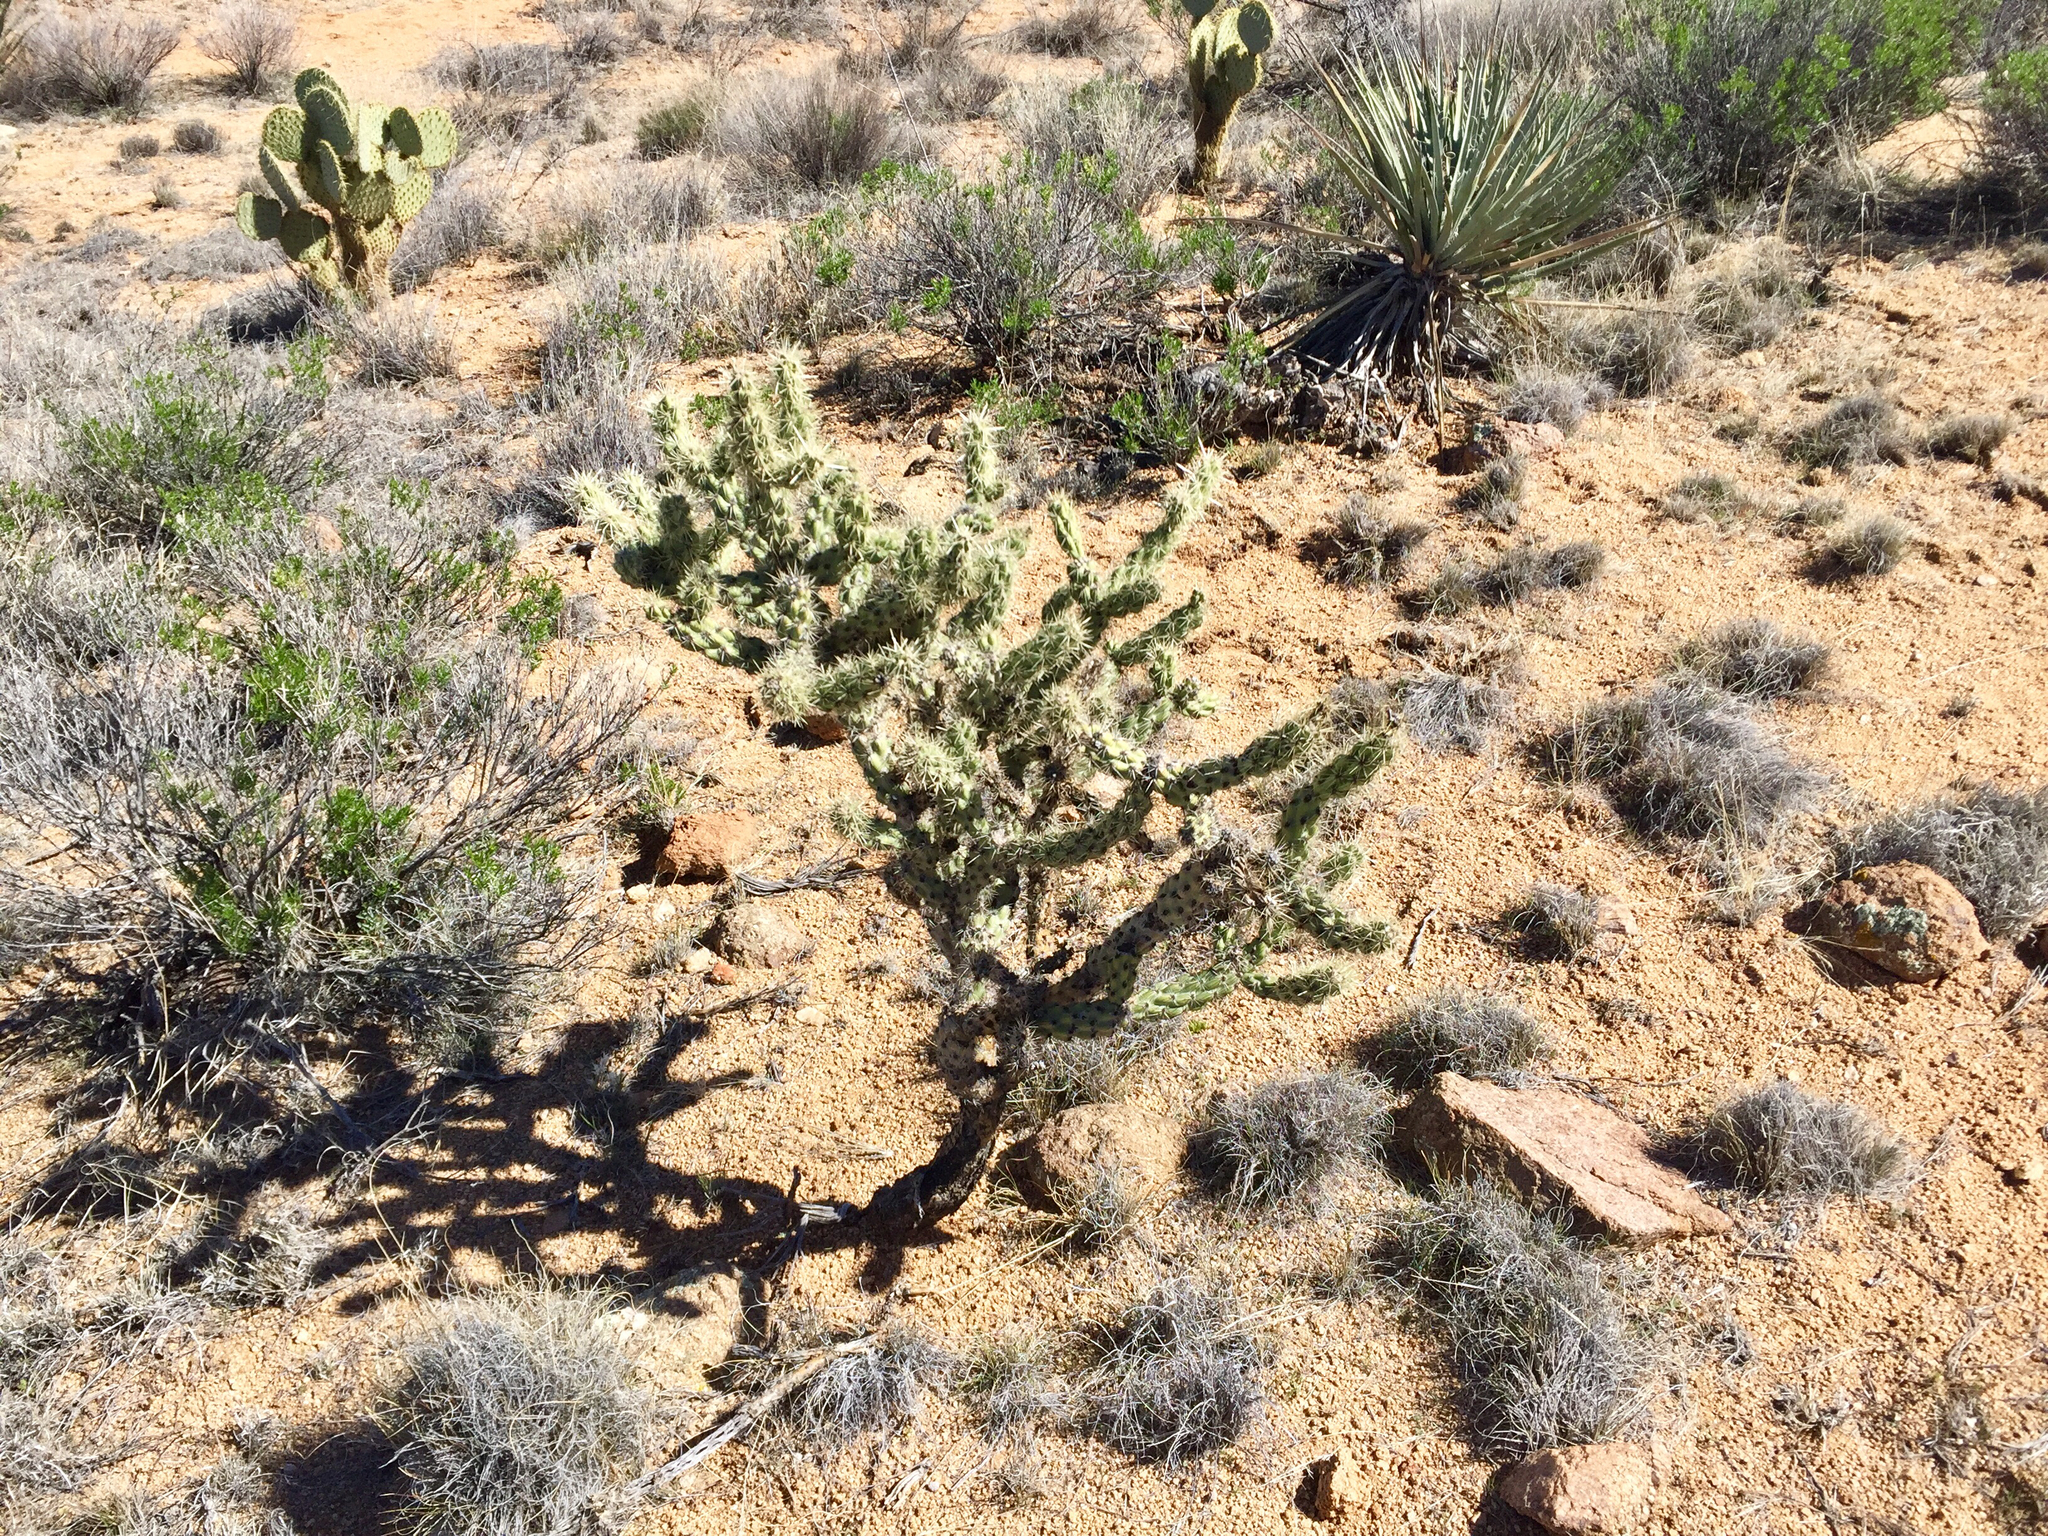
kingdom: Plantae
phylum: Tracheophyta
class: Magnoliopsida
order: Caryophyllales
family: Cactaceae
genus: Cylindropuntia
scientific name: Cylindropuntia acanthocarpa
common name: Buckhorn cholla
